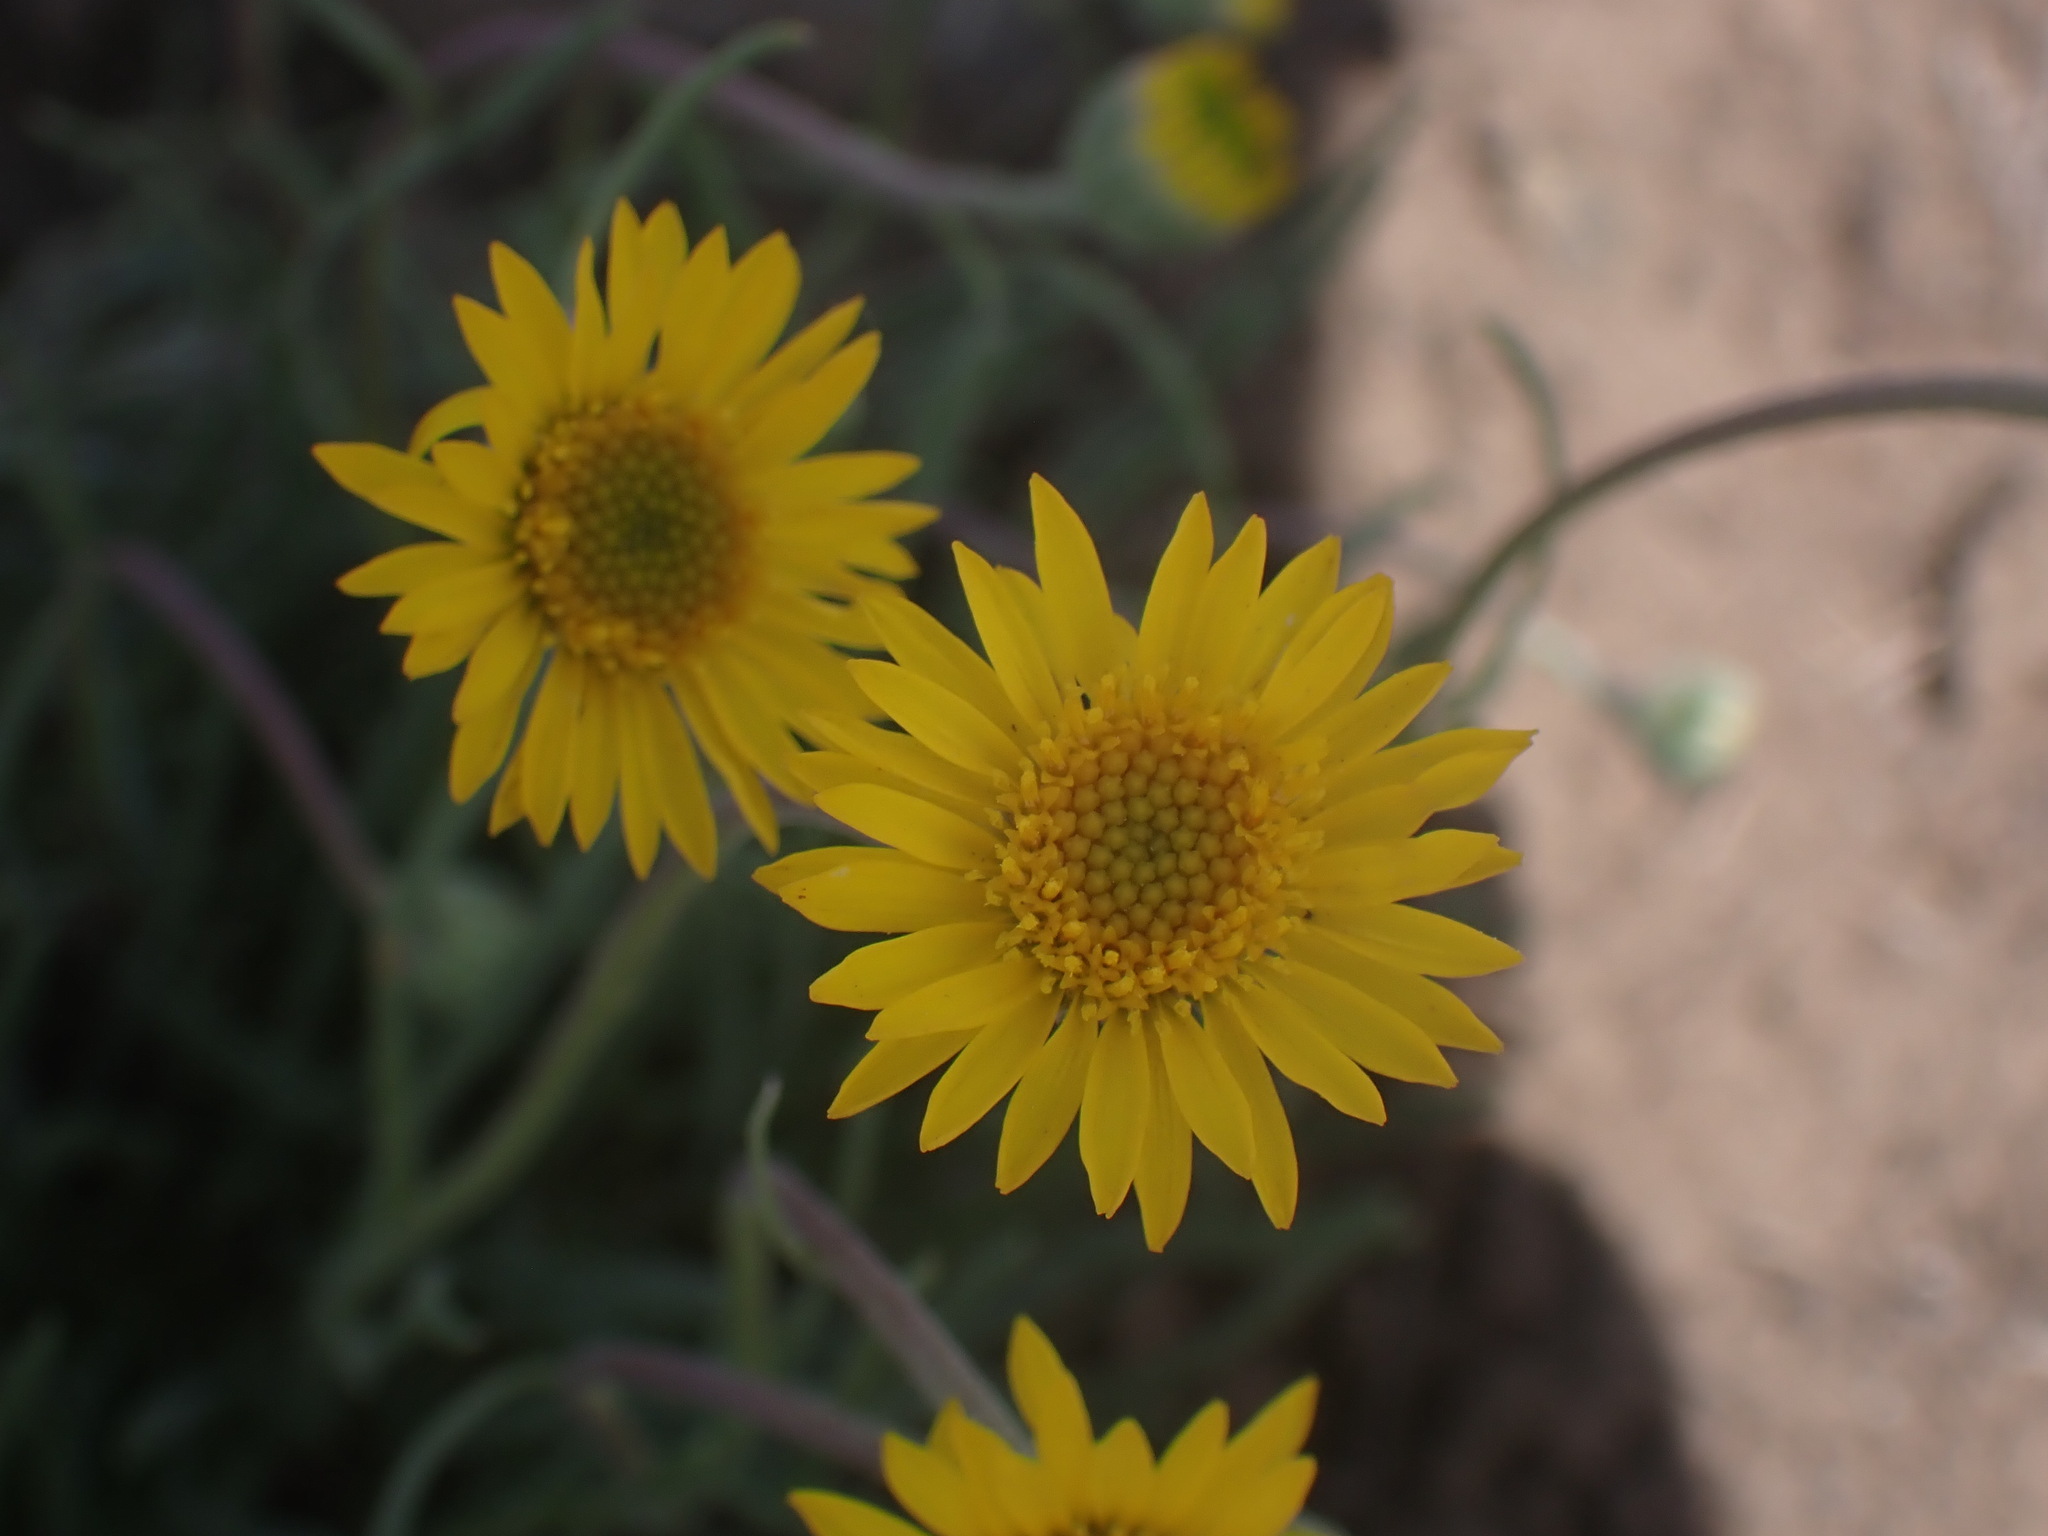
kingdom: Plantae
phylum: Tracheophyta
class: Magnoliopsida
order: Asterales
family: Asteraceae
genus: Erigeron
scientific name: Erigeron linearis
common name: Desert yellow fleabane
